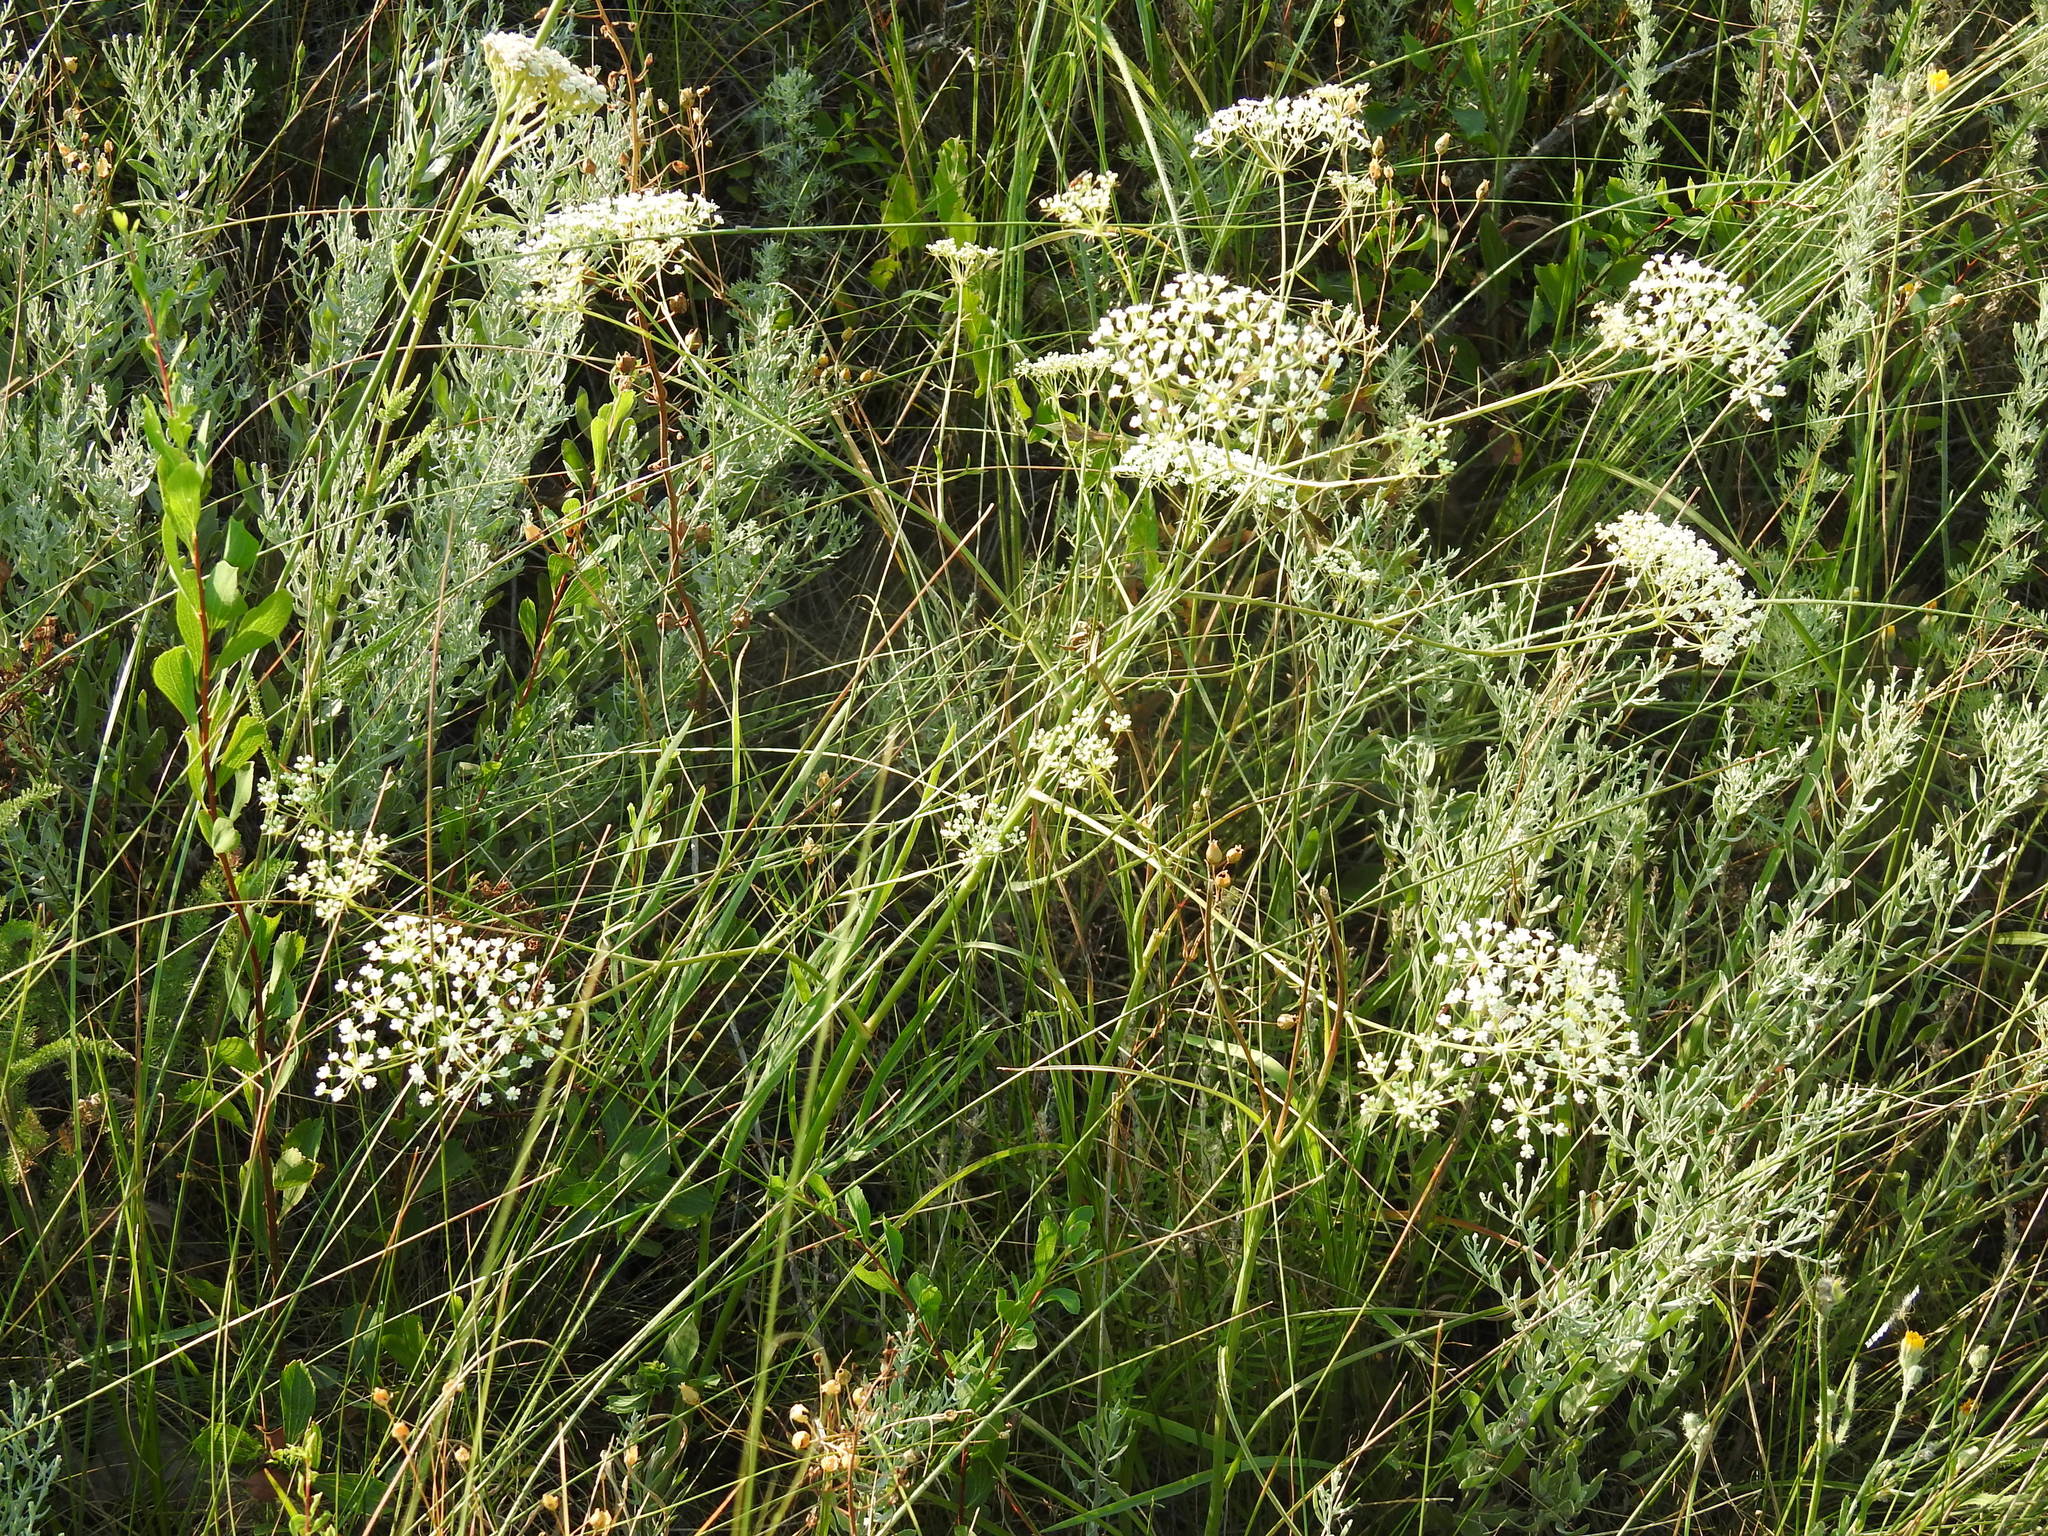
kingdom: Plantae
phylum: Tracheophyta
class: Magnoliopsida
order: Apiales
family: Apiaceae
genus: Falcaria
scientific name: Falcaria vulgaris
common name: Longleaf
